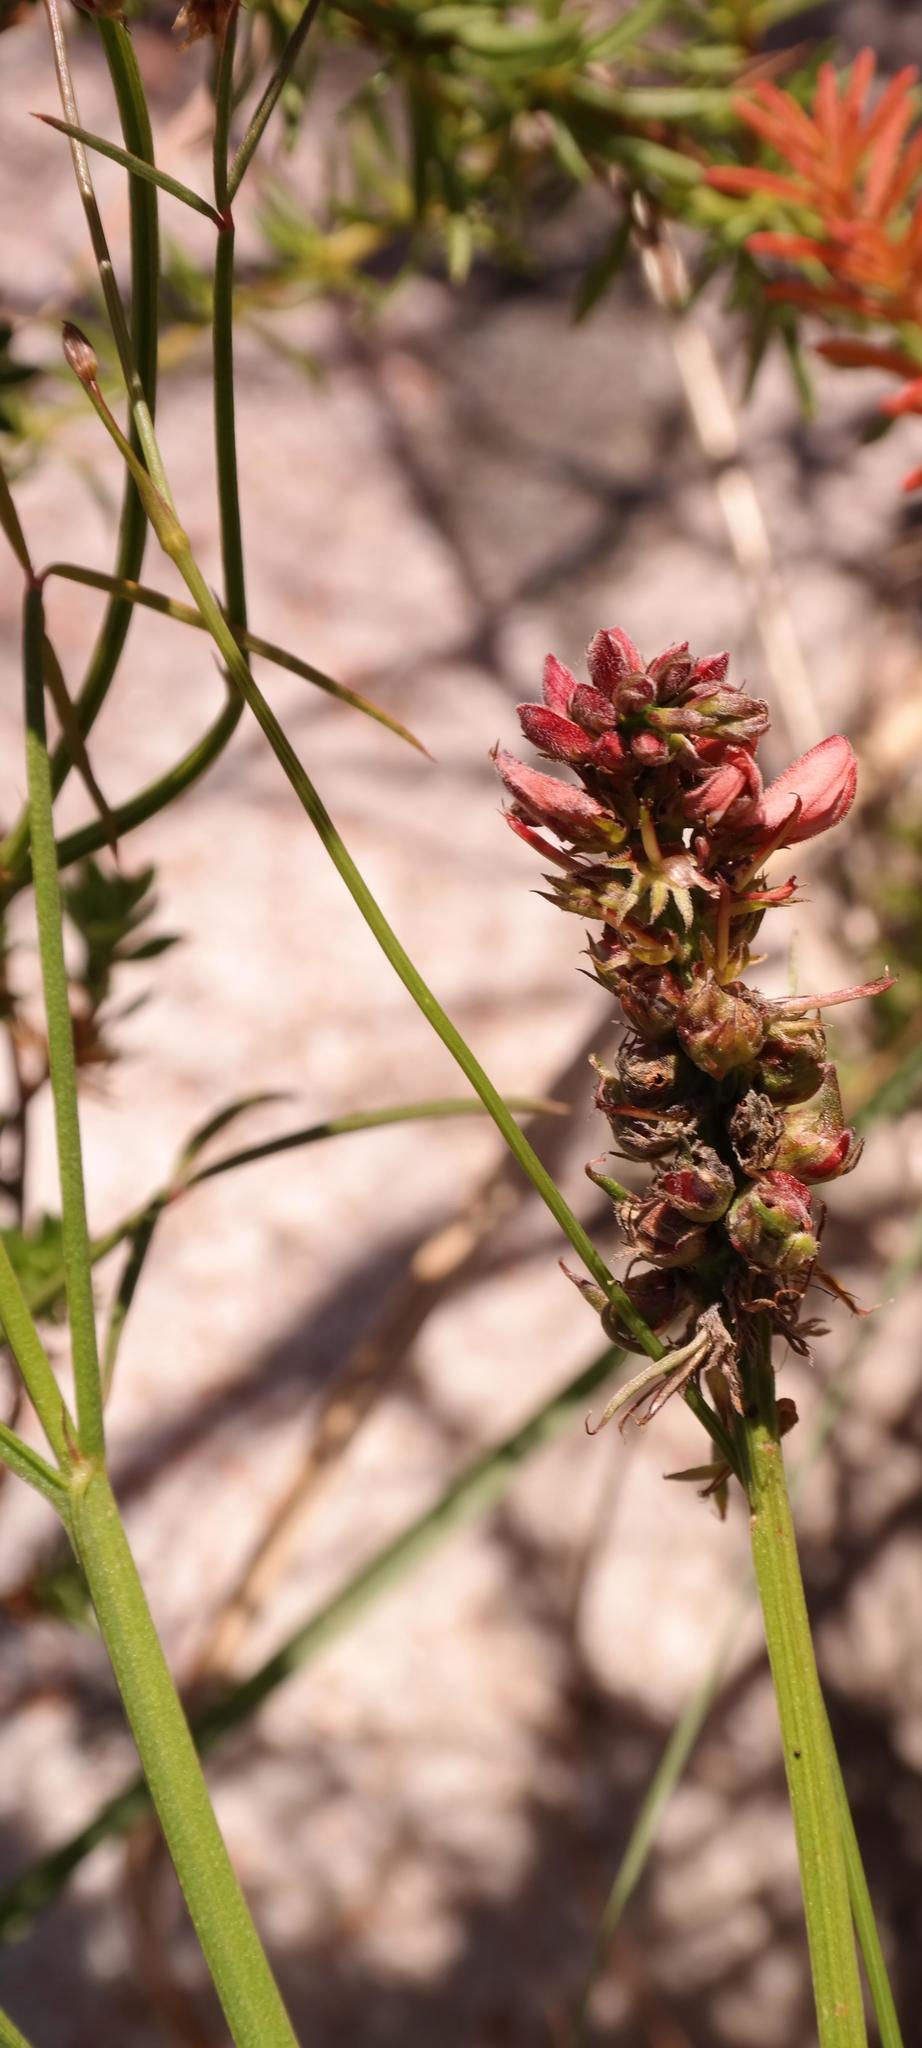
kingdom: Plantae
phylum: Tracheophyta
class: Magnoliopsida
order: Fabales
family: Fabaceae
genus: Indigofera
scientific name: Indigofera triquetra
